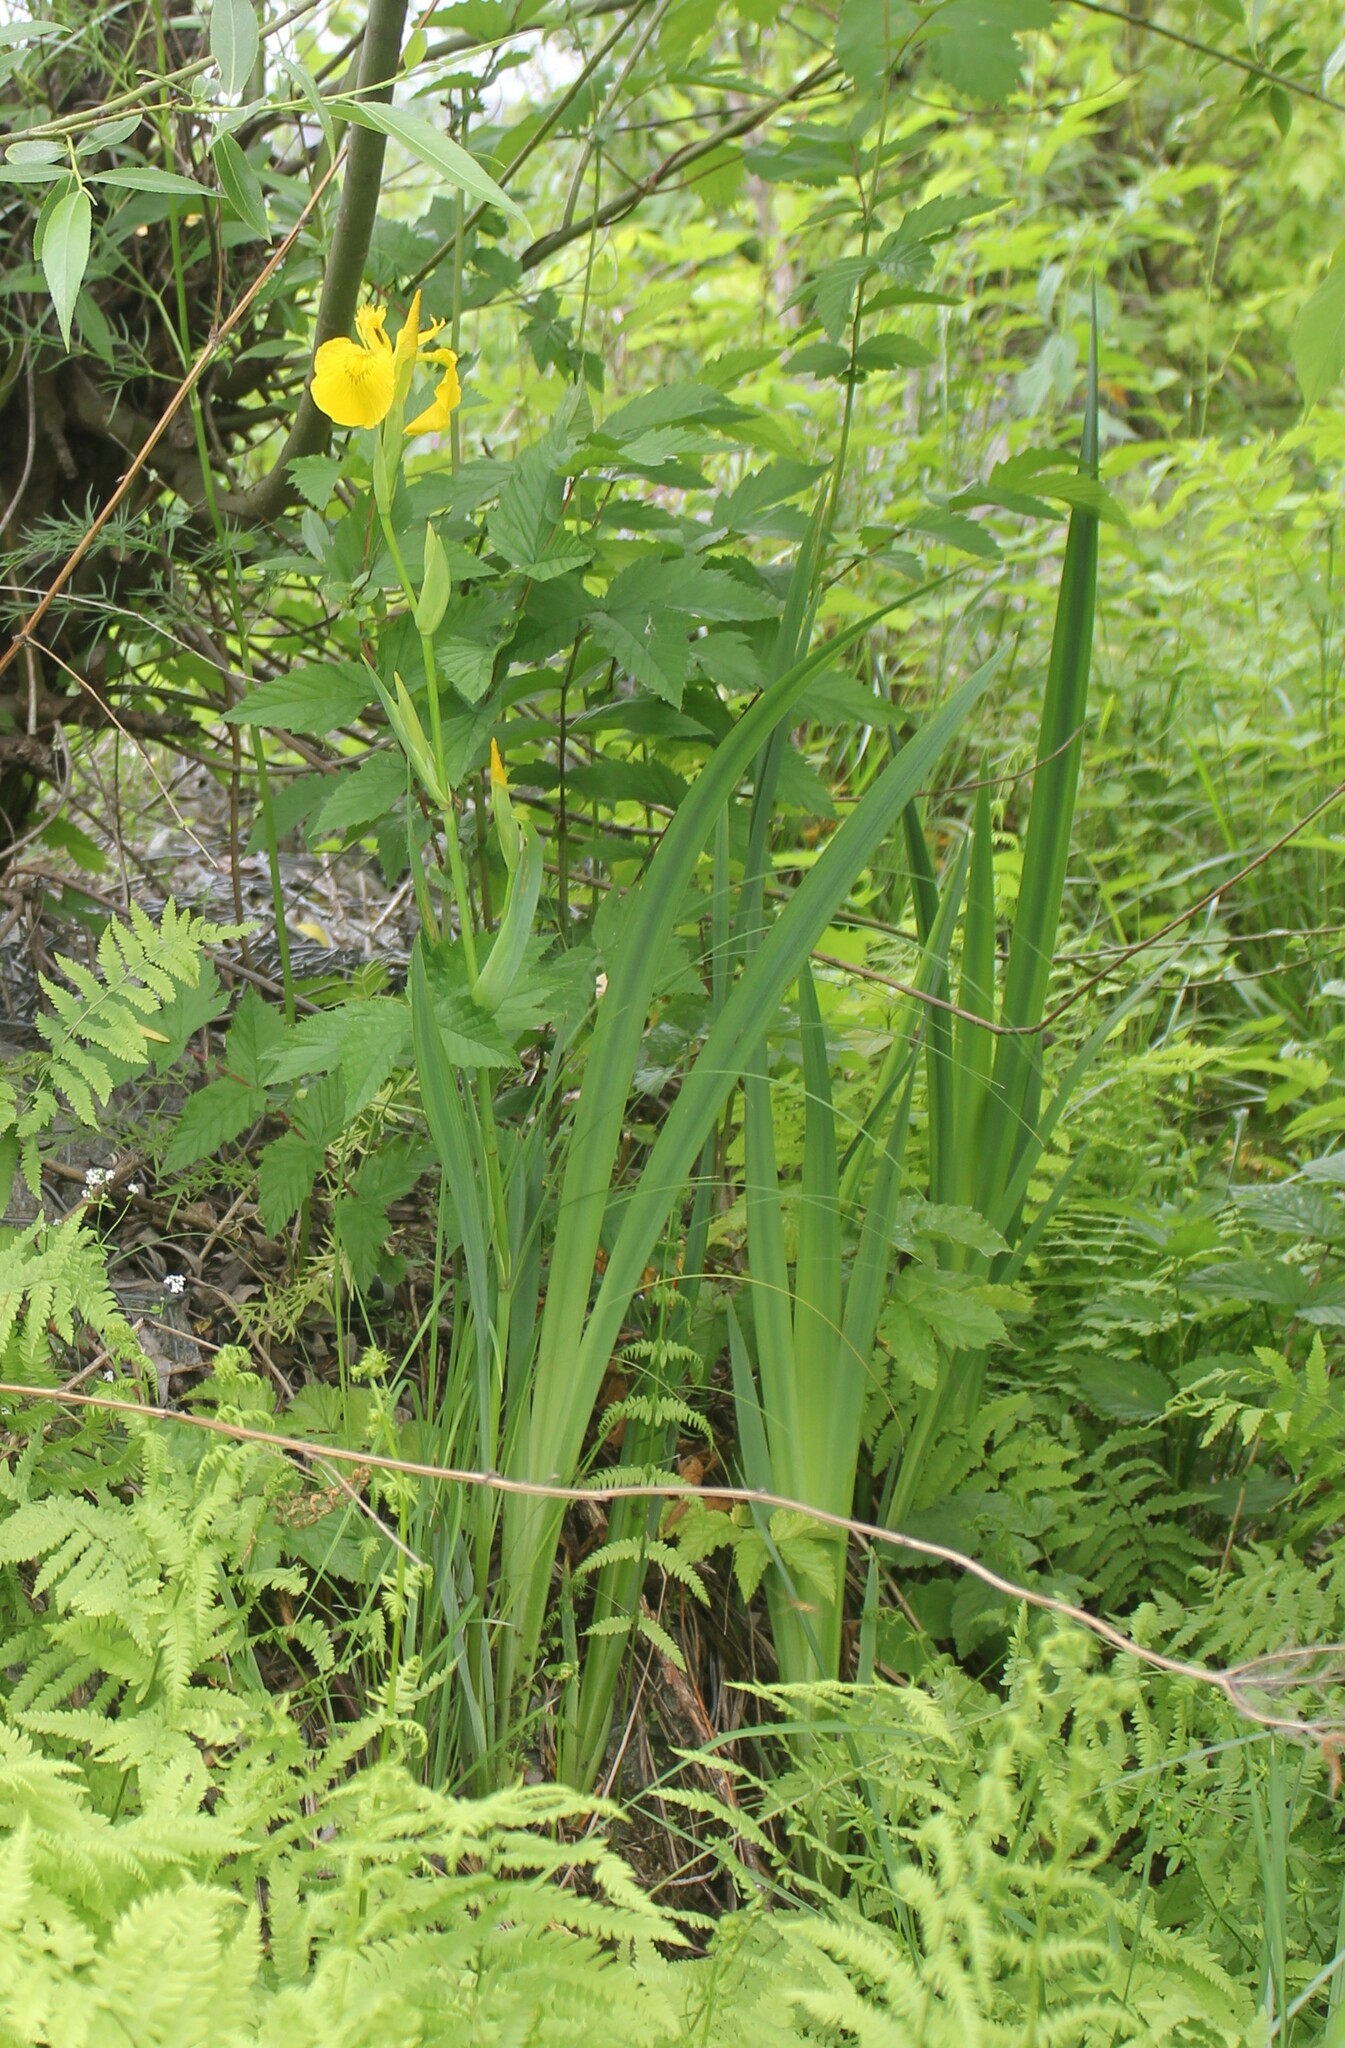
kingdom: Plantae
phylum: Tracheophyta
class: Liliopsida
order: Asparagales
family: Iridaceae
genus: Iris
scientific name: Iris pseudacorus
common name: Yellow flag
